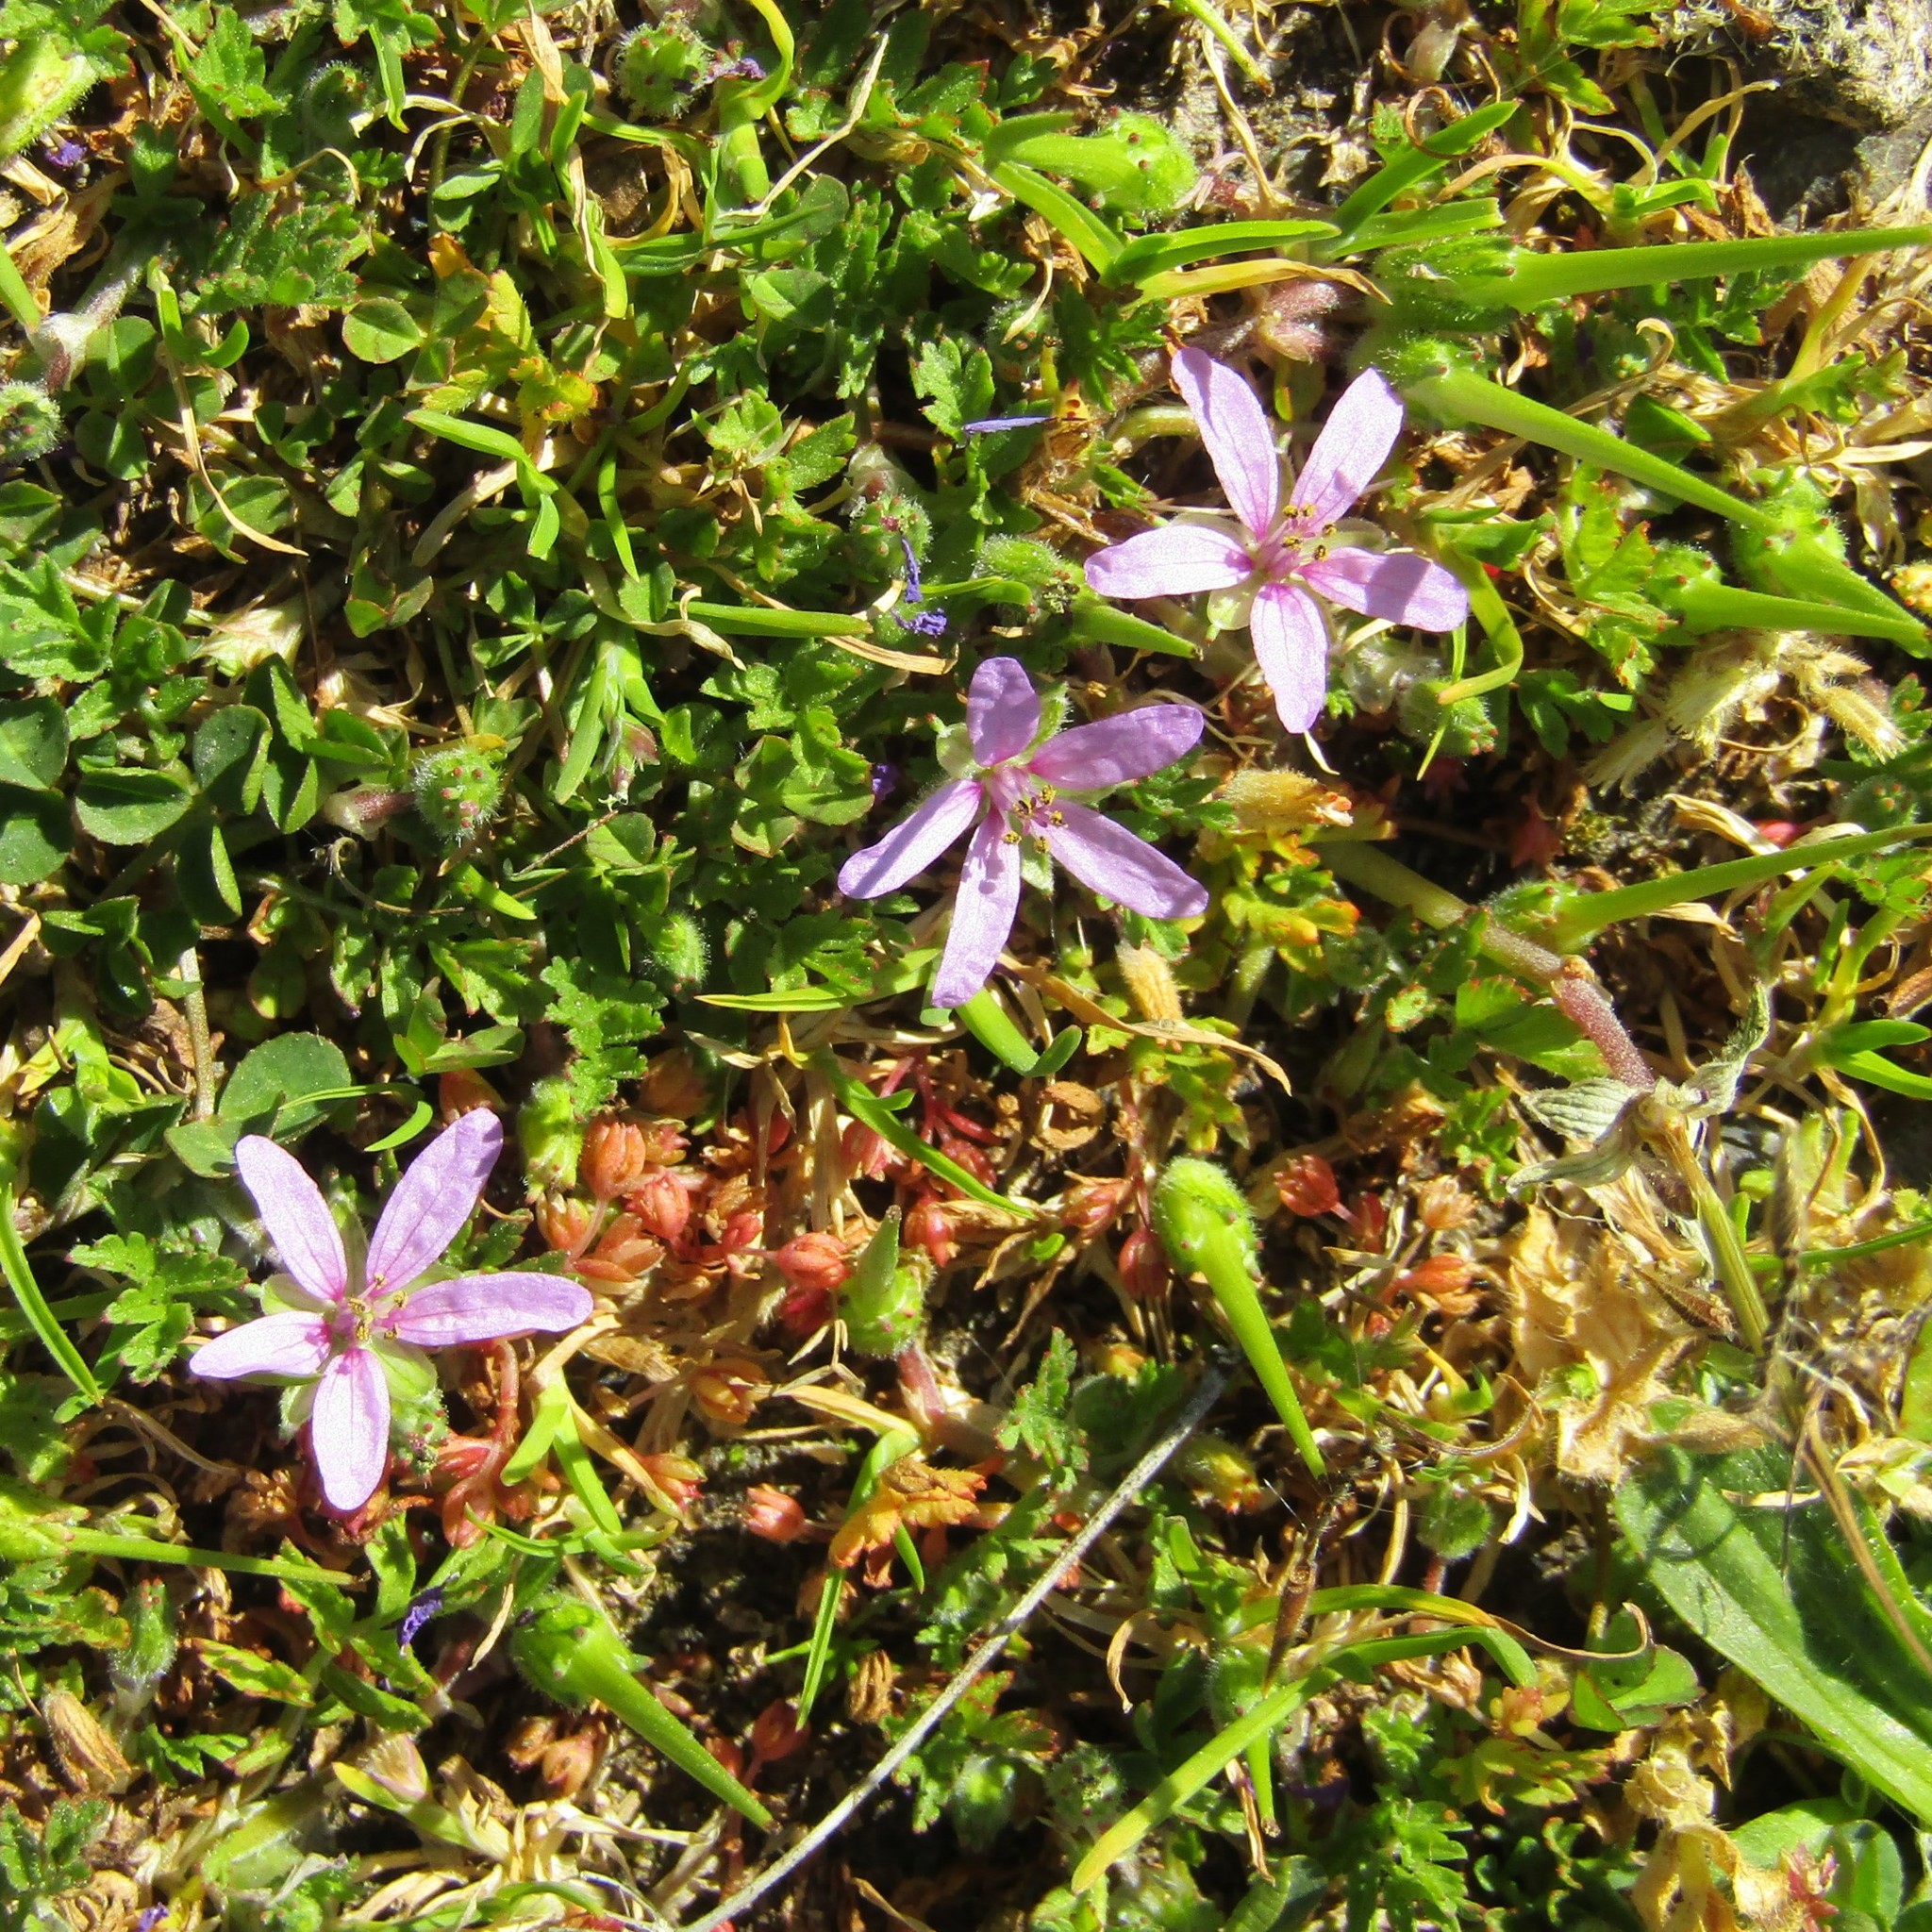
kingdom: Plantae
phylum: Tracheophyta
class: Magnoliopsida
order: Geraniales
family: Geraniaceae
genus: Erodium
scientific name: Erodium cicutarium
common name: Common stork's-bill
